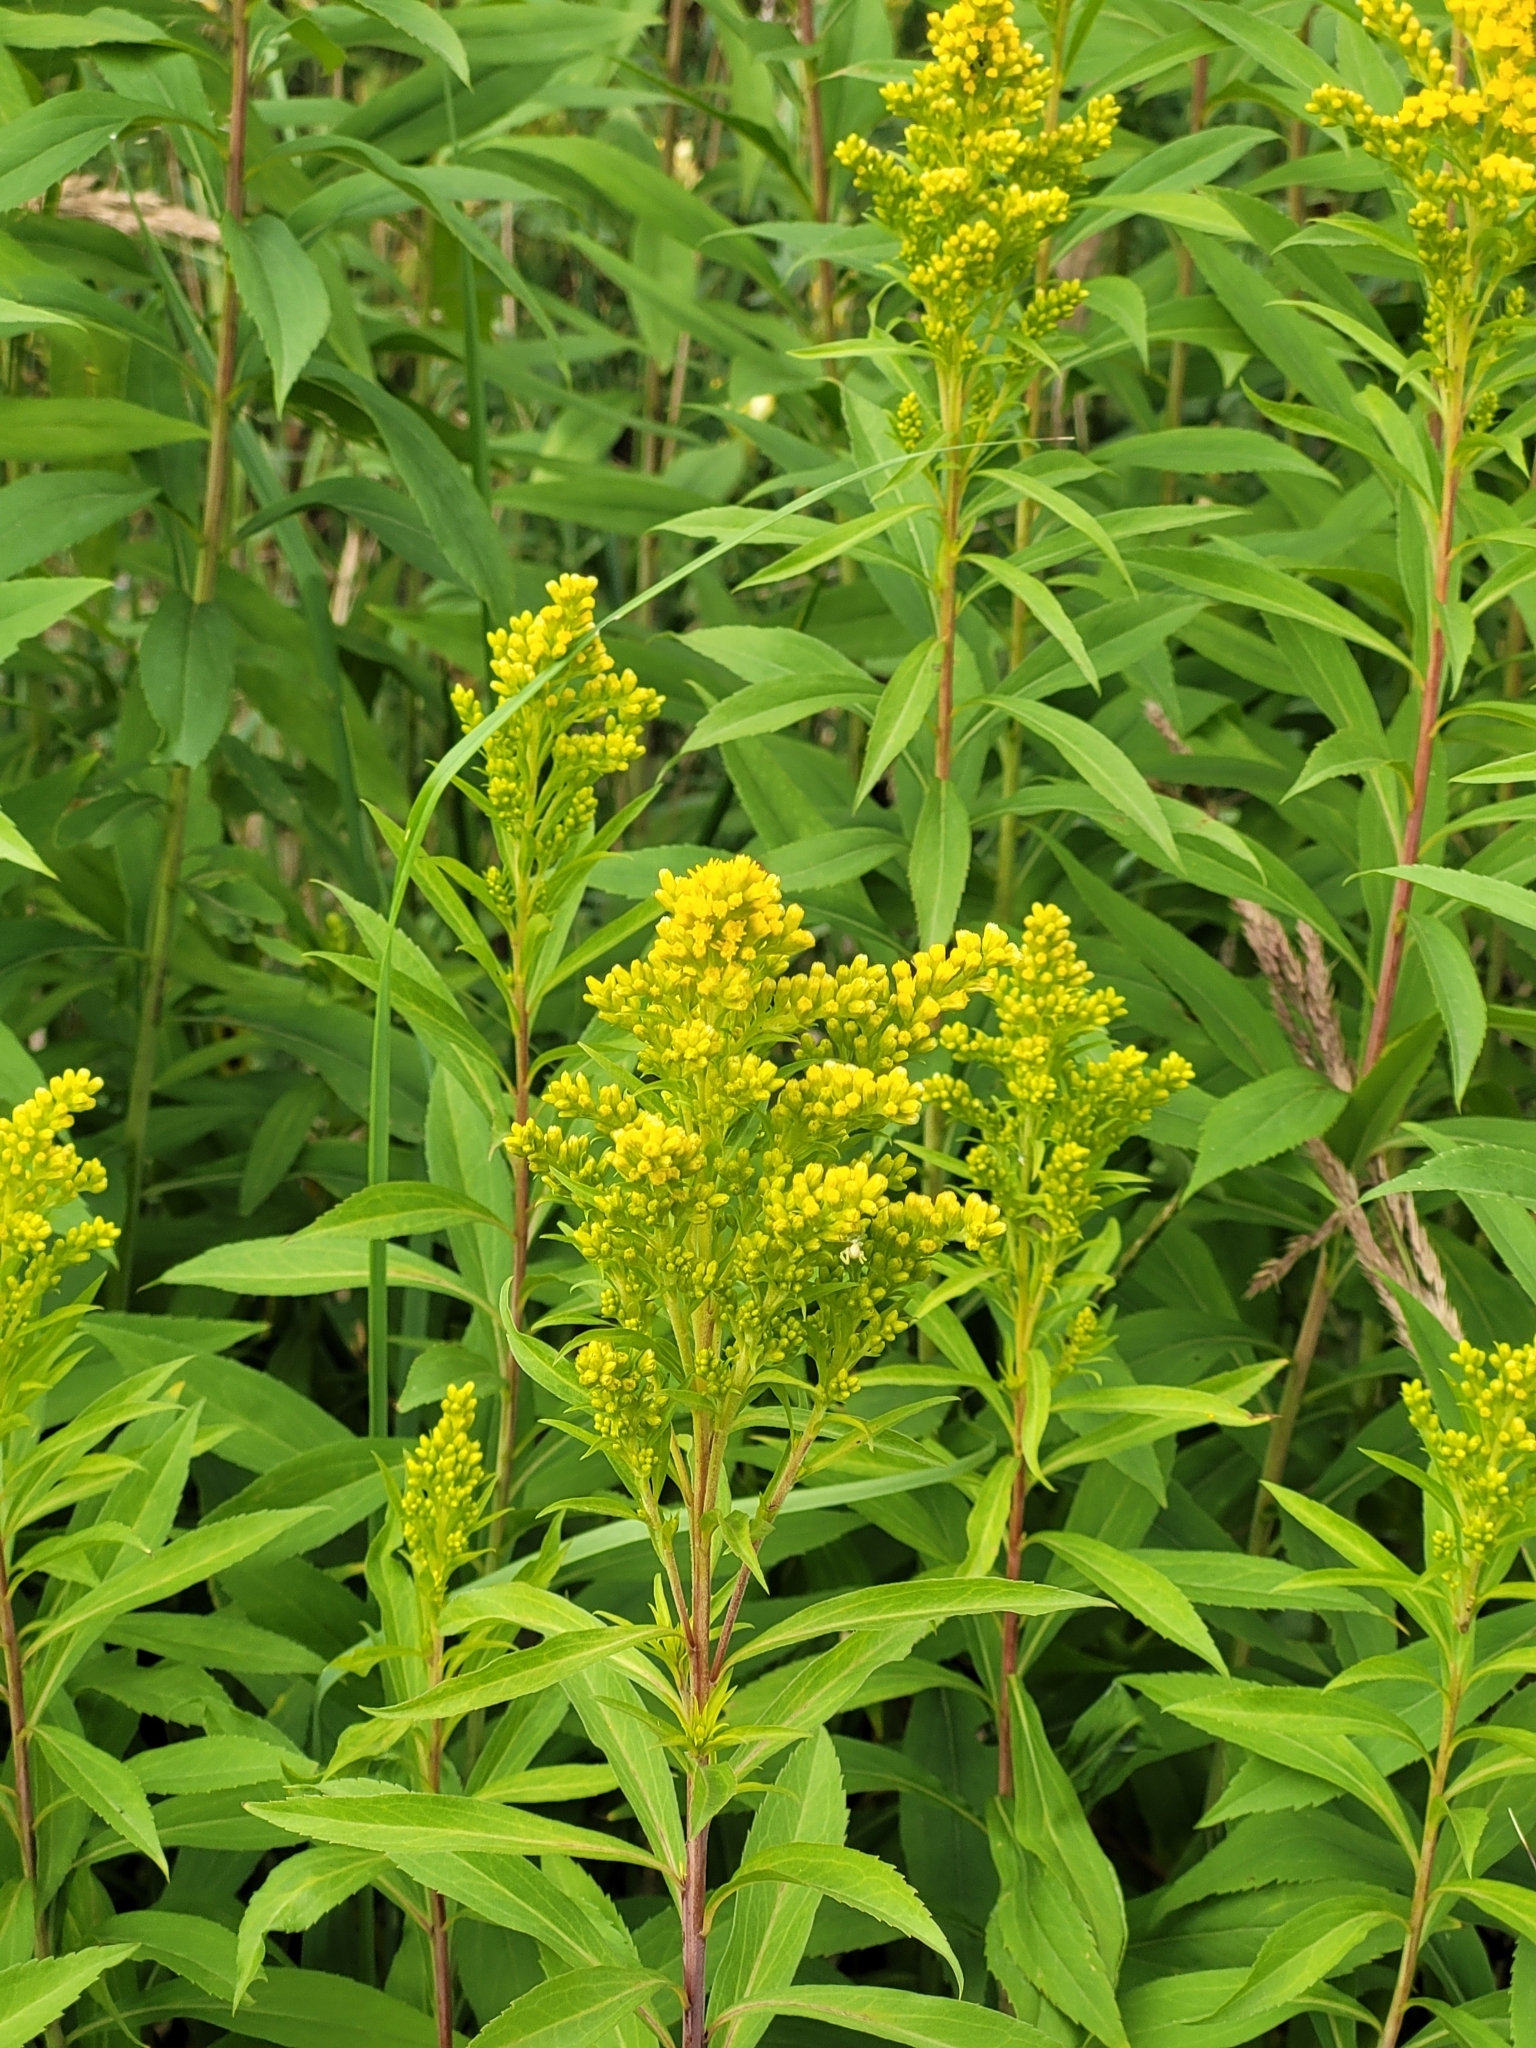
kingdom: Plantae
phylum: Tracheophyta
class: Magnoliopsida
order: Asterales
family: Asteraceae
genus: Solidago
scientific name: Solidago gigantea
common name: Giant goldenrod
